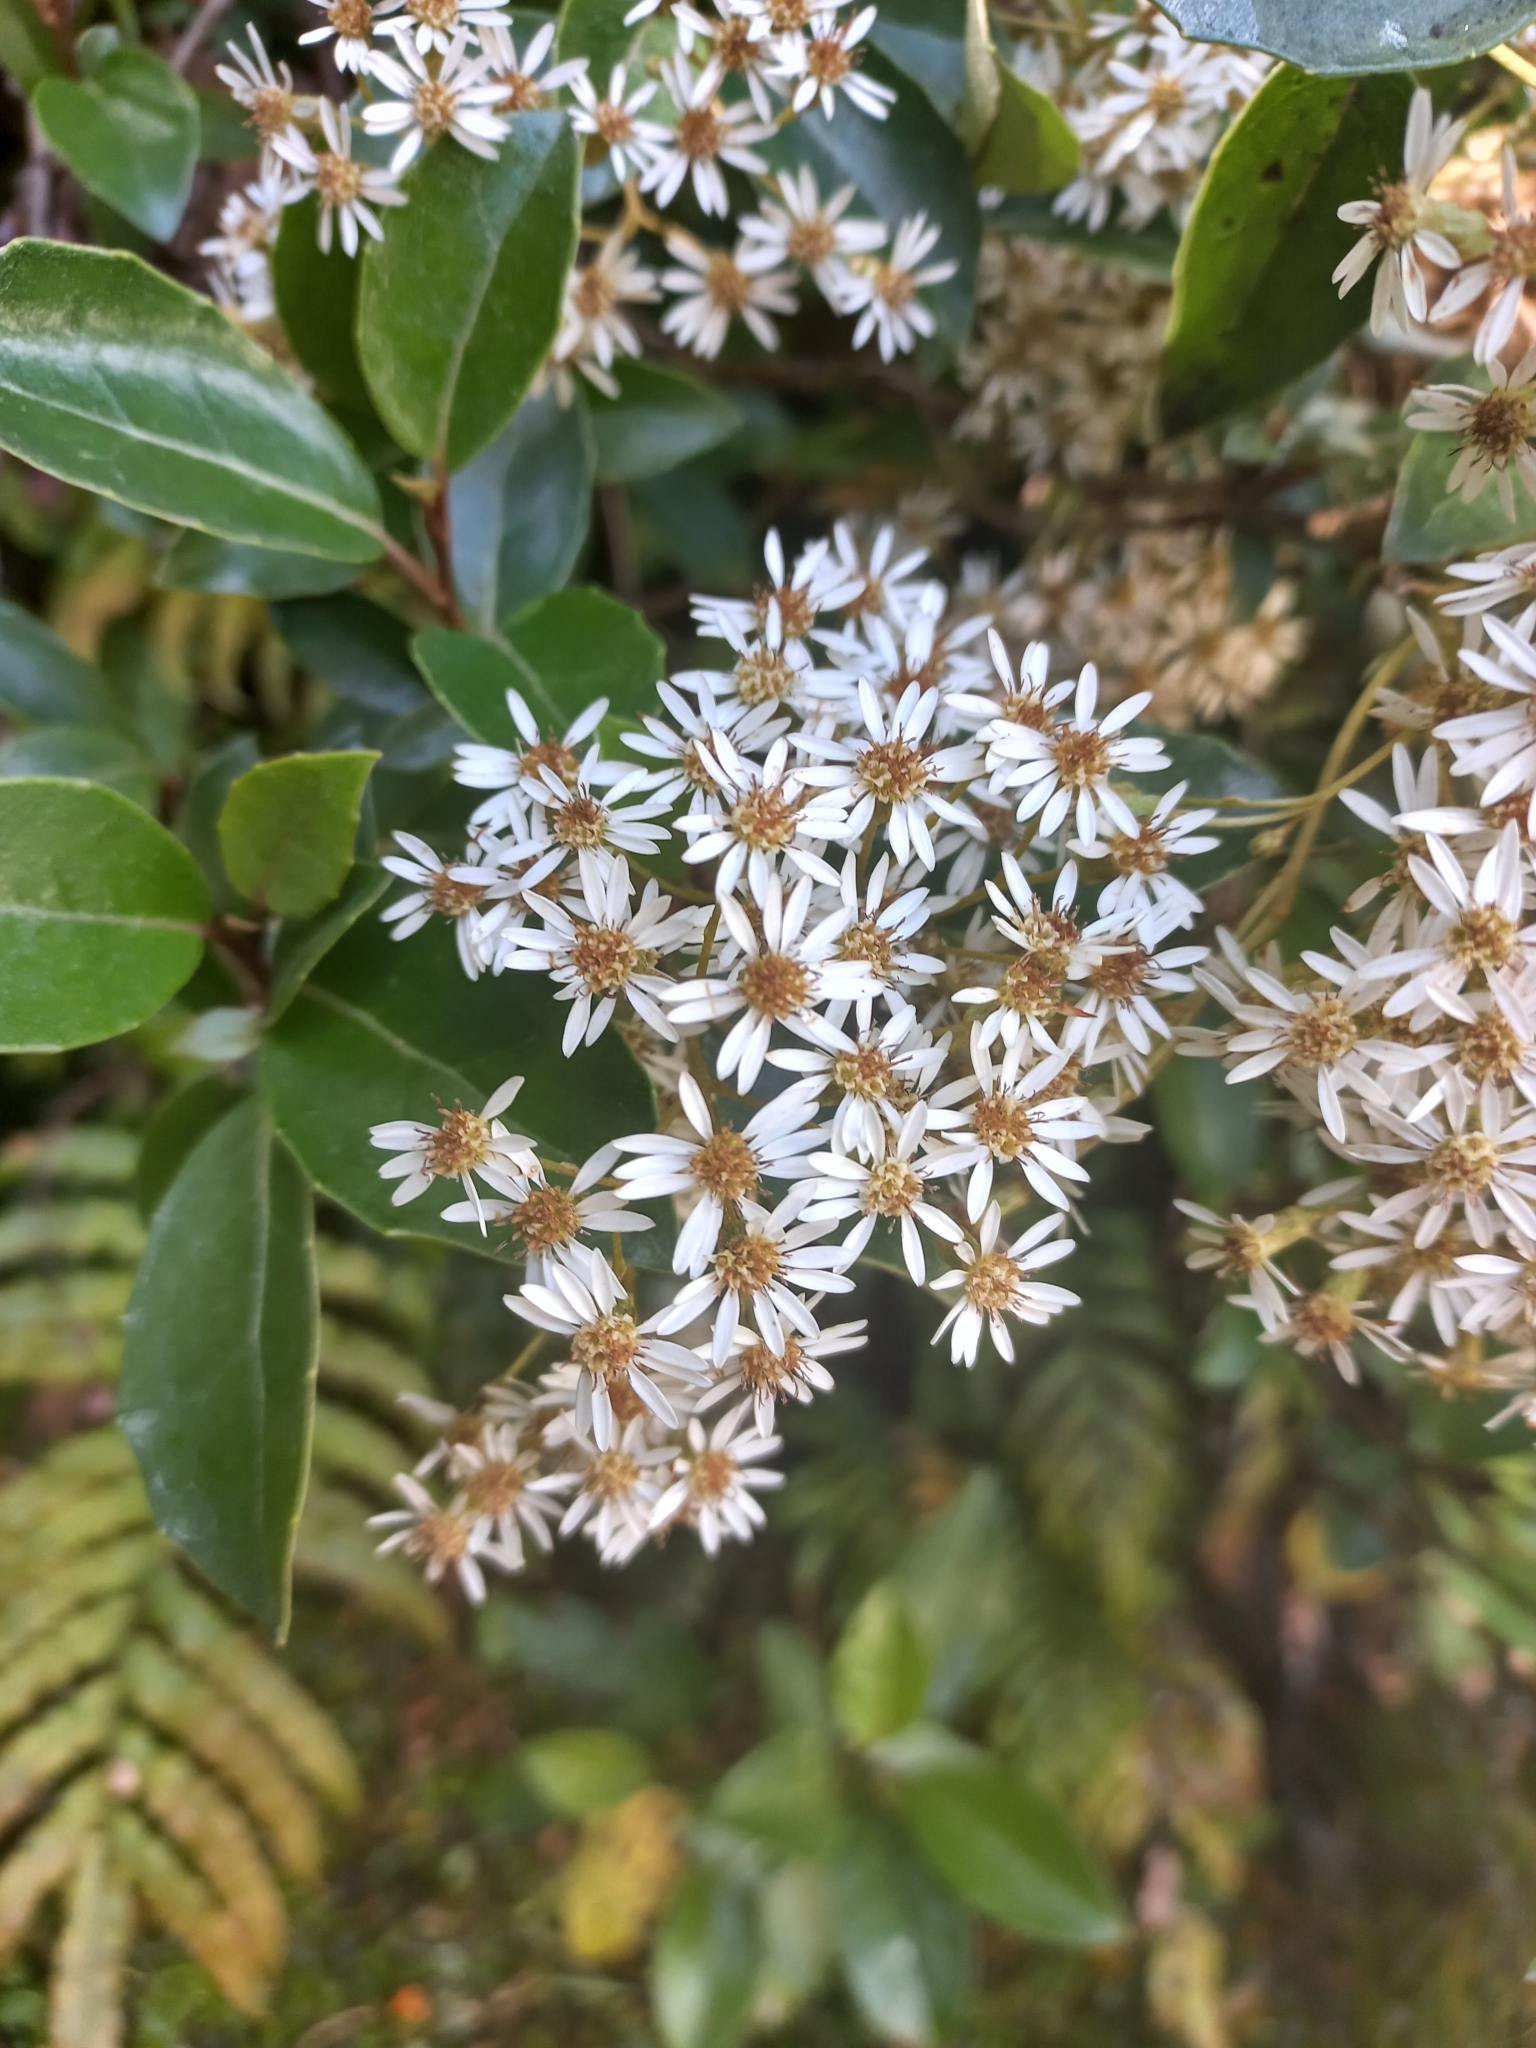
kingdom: Plantae
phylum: Tracheophyta
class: Magnoliopsida
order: Asterales
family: Asteraceae
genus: Olearia
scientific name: Olearia arborescens
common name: Glossy tree daisy
